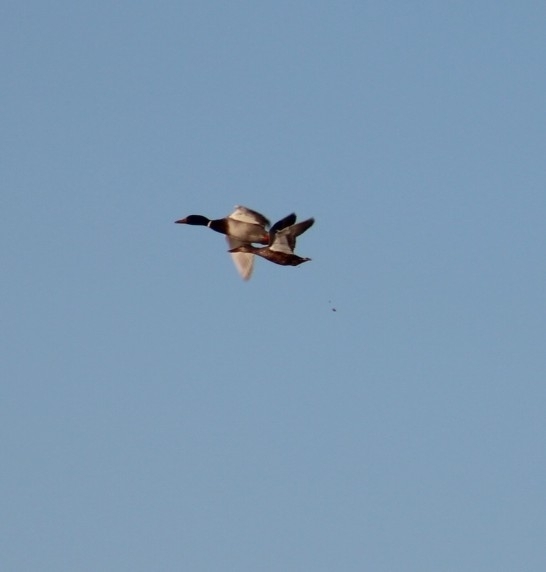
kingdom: Animalia
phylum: Chordata
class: Aves
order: Anseriformes
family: Anatidae
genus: Anas
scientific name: Anas platyrhynchos
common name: Mallard
